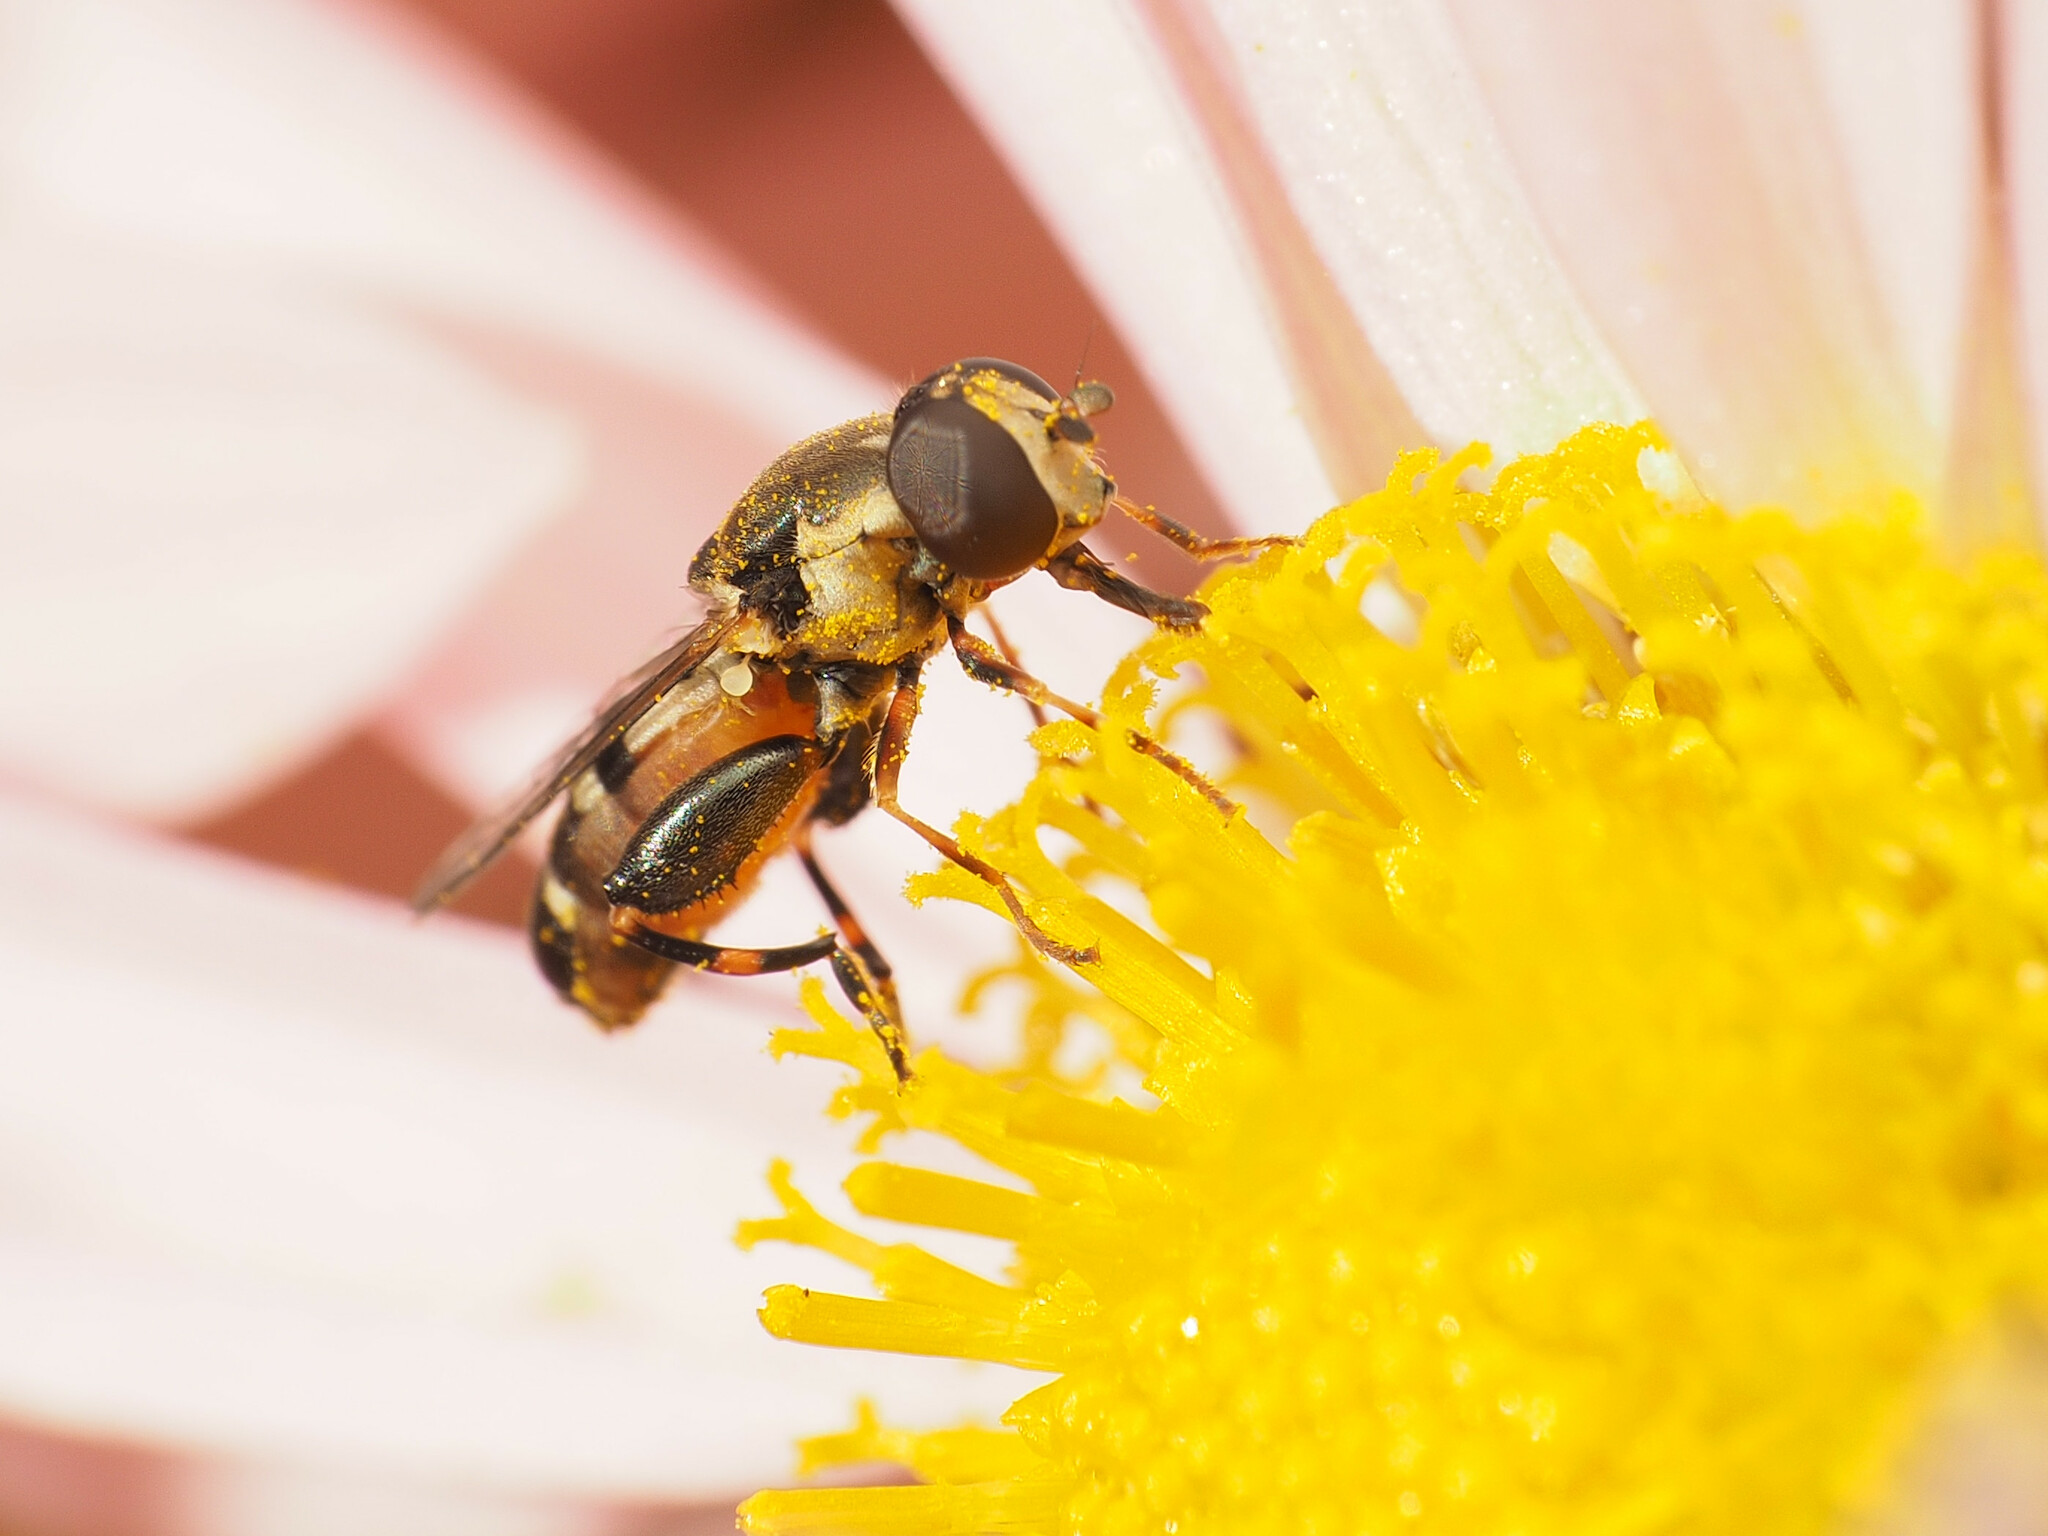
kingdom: Animalia
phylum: Arthropoda
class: Insecta
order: Diptera
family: Syrphidae
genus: Syritta
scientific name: Syritta pipiens
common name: Hover fly
